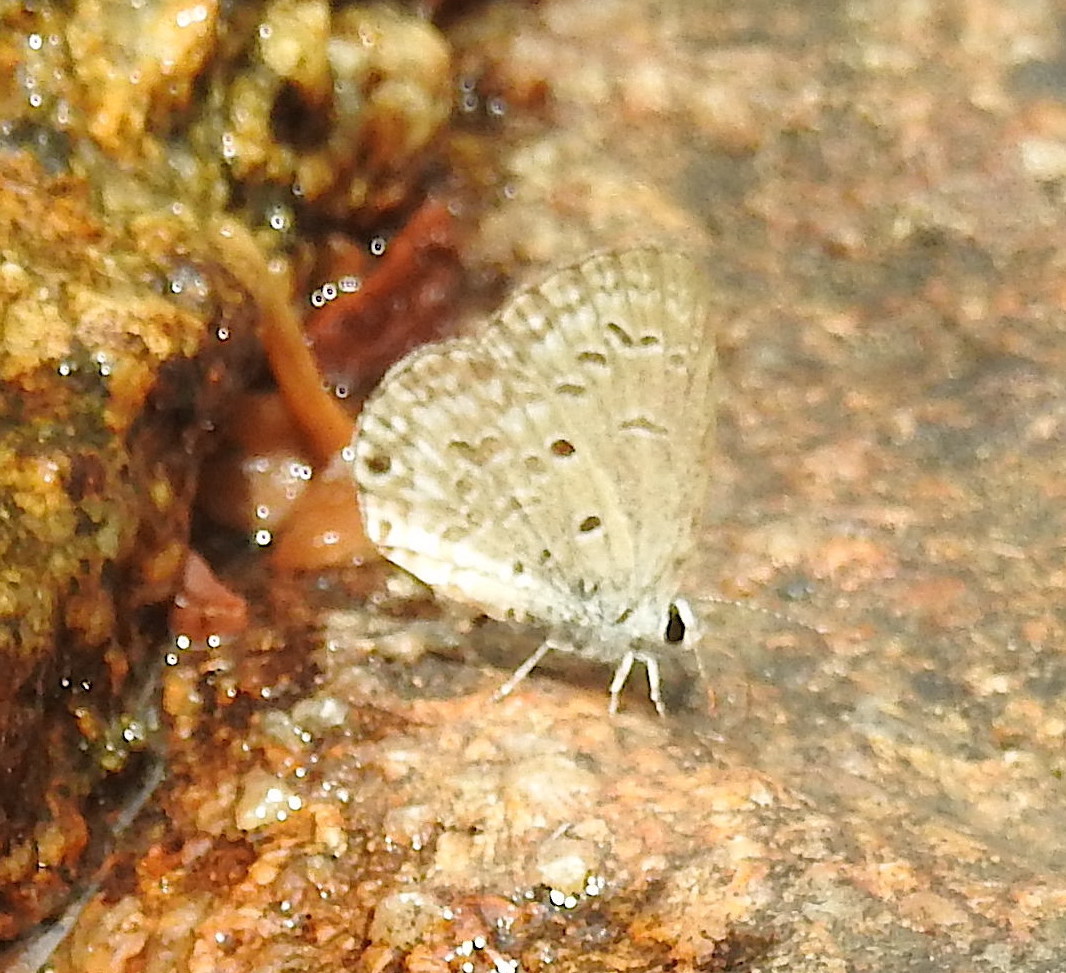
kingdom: Animalia
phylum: Arthropoda
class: Insecta
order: Lepidoptera
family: Lycaenidae
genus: Chilades
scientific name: Chilades laius
